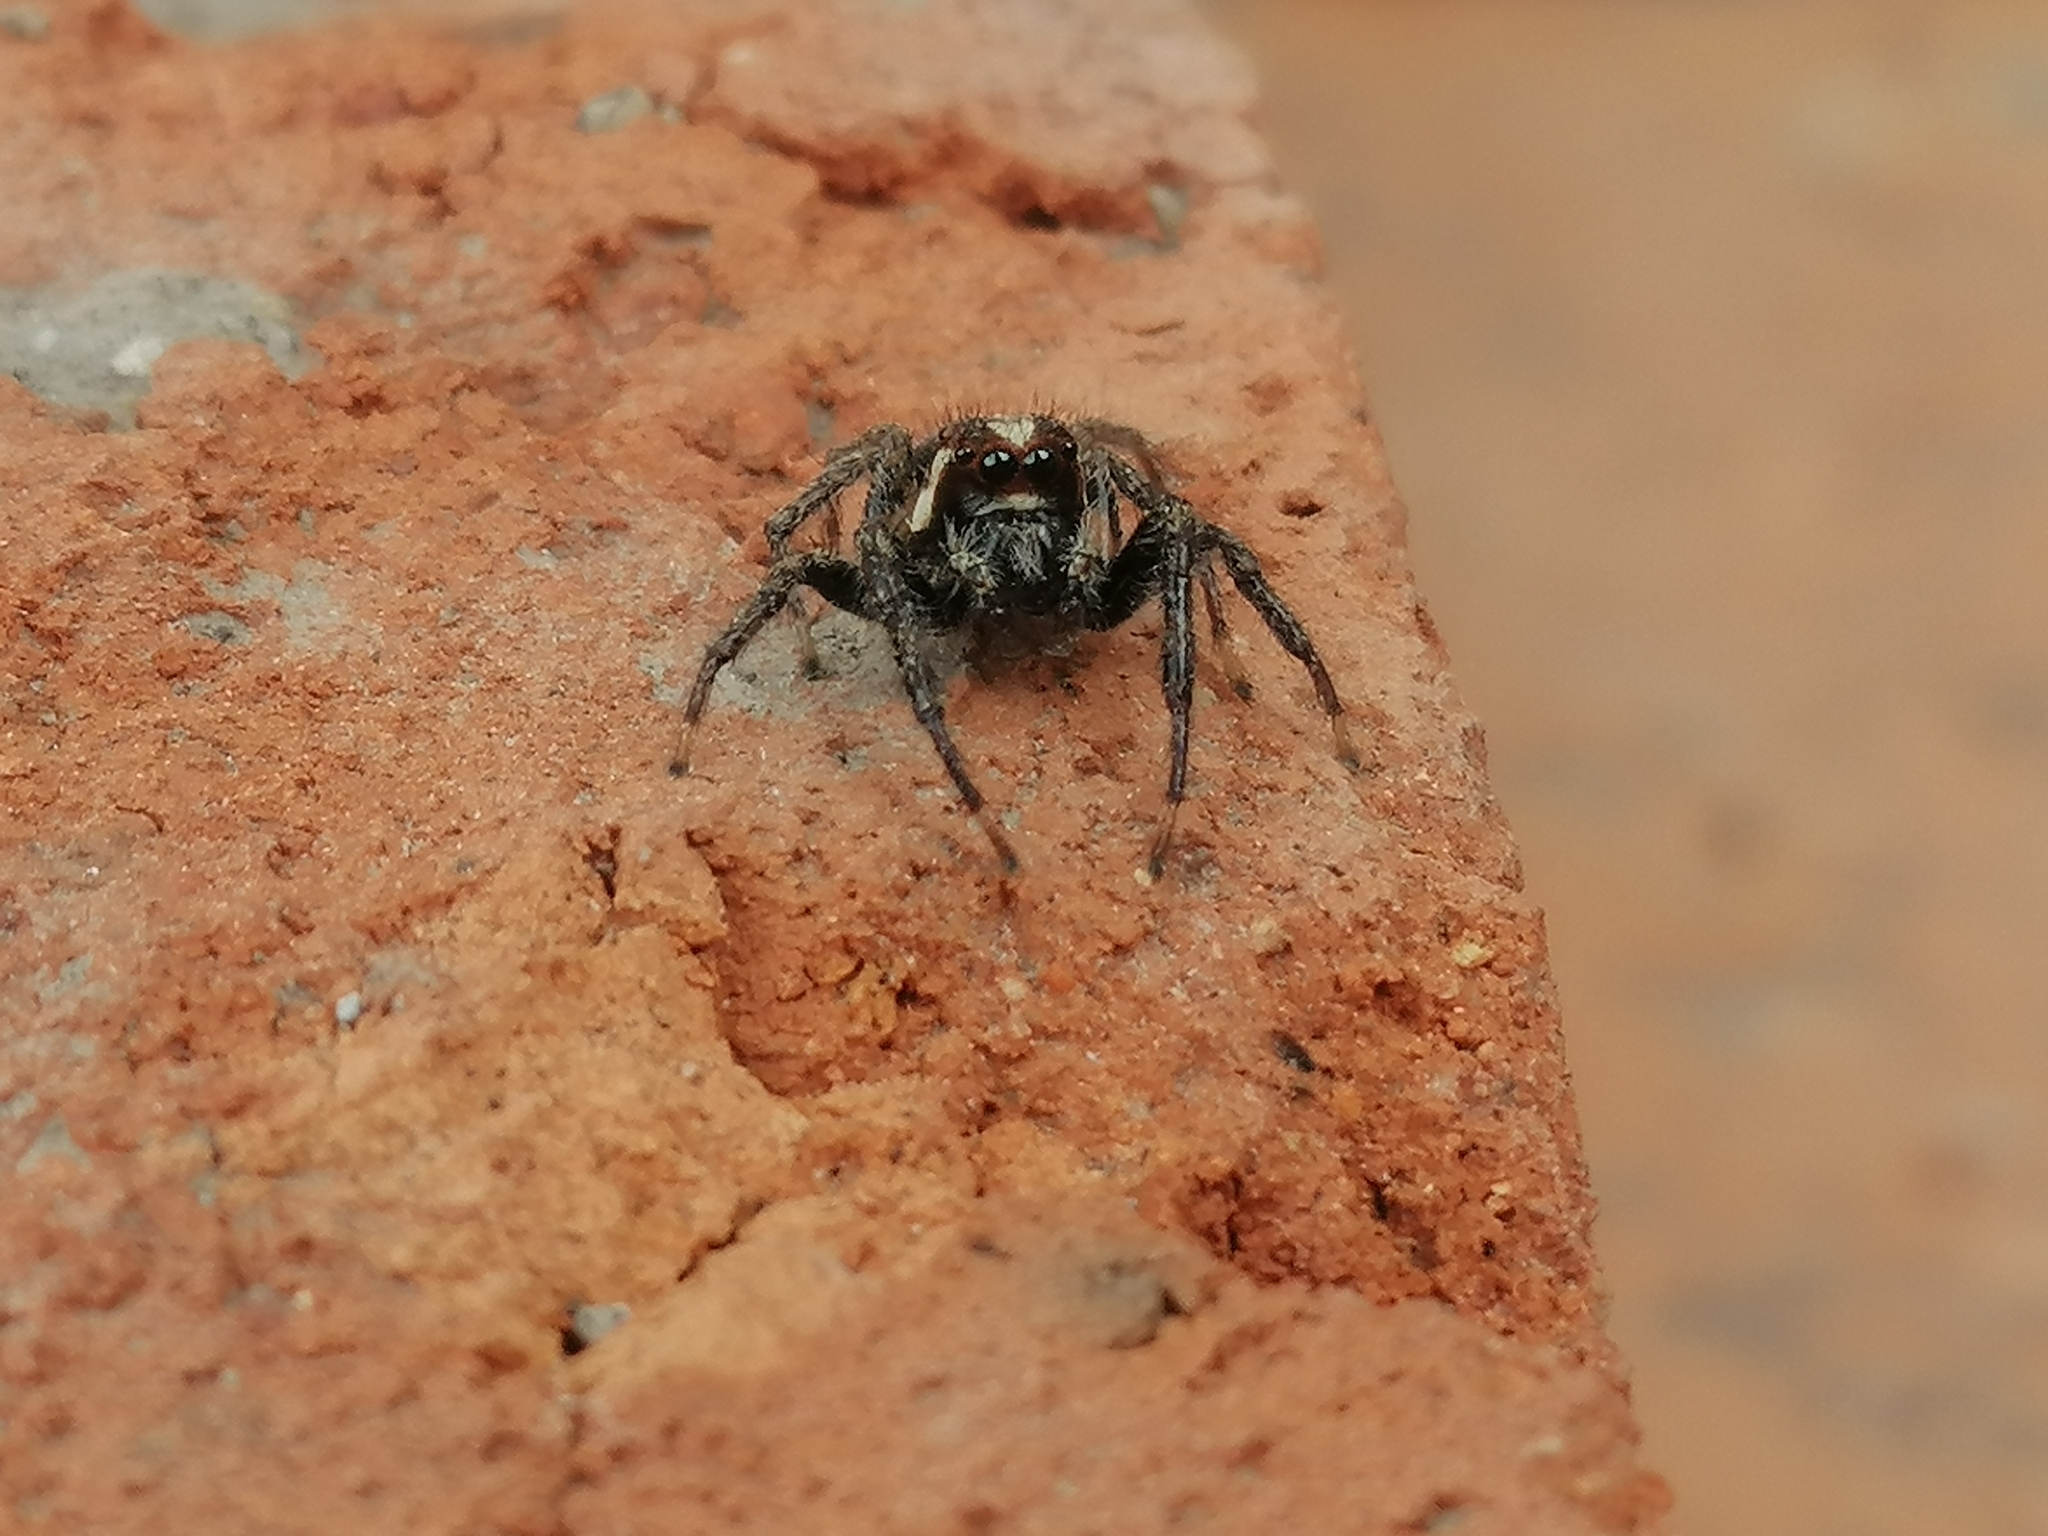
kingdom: Animalia
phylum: Arthropoda
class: Arachnida
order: Araneae
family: Salticidae
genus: Frigga
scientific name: Frigga crocuta
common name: Jumping spiders
